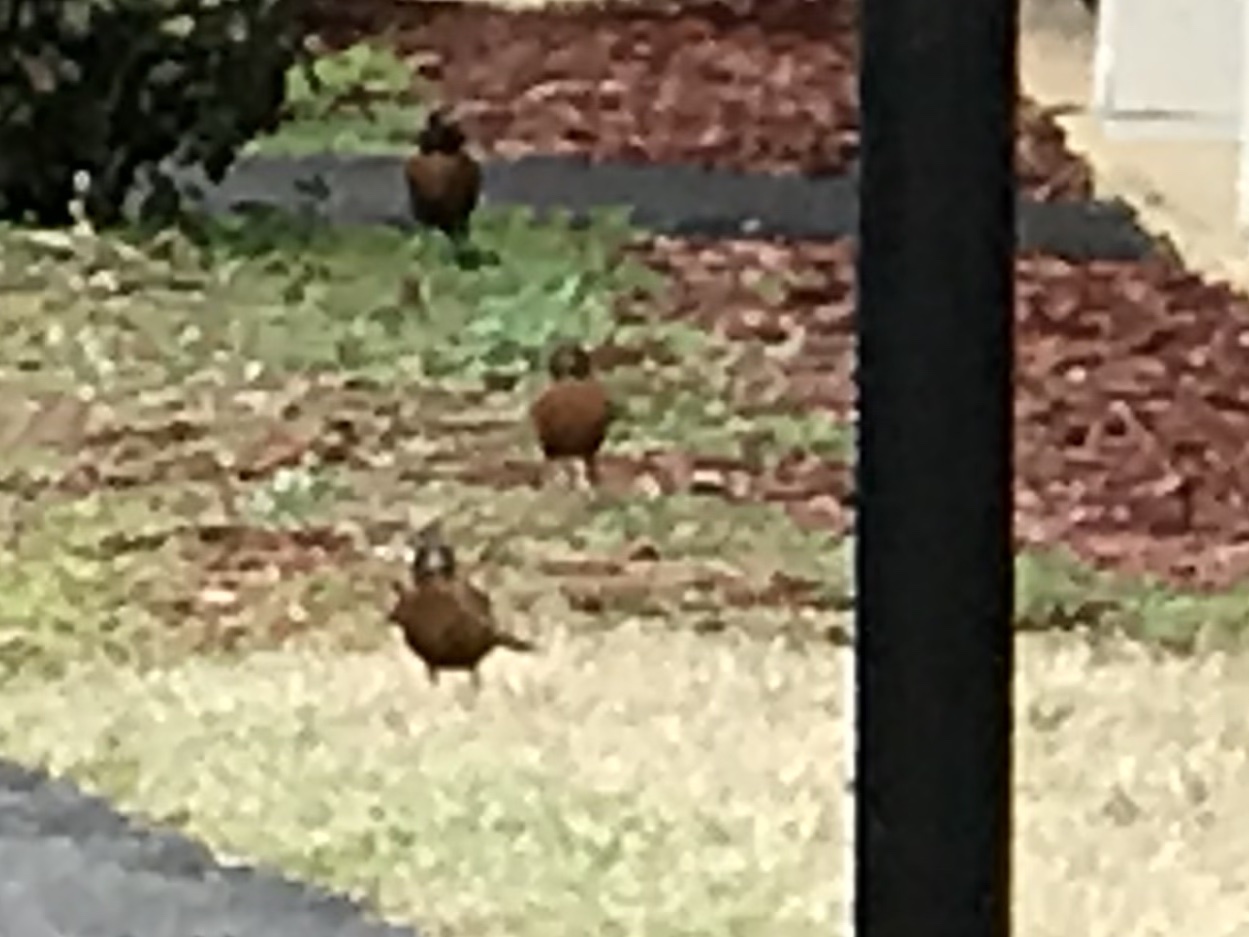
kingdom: Animalia
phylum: Chordata
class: Aves
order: Passeriformes
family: Turdidae
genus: Turdus
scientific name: Turdus migratorius
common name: American robin
